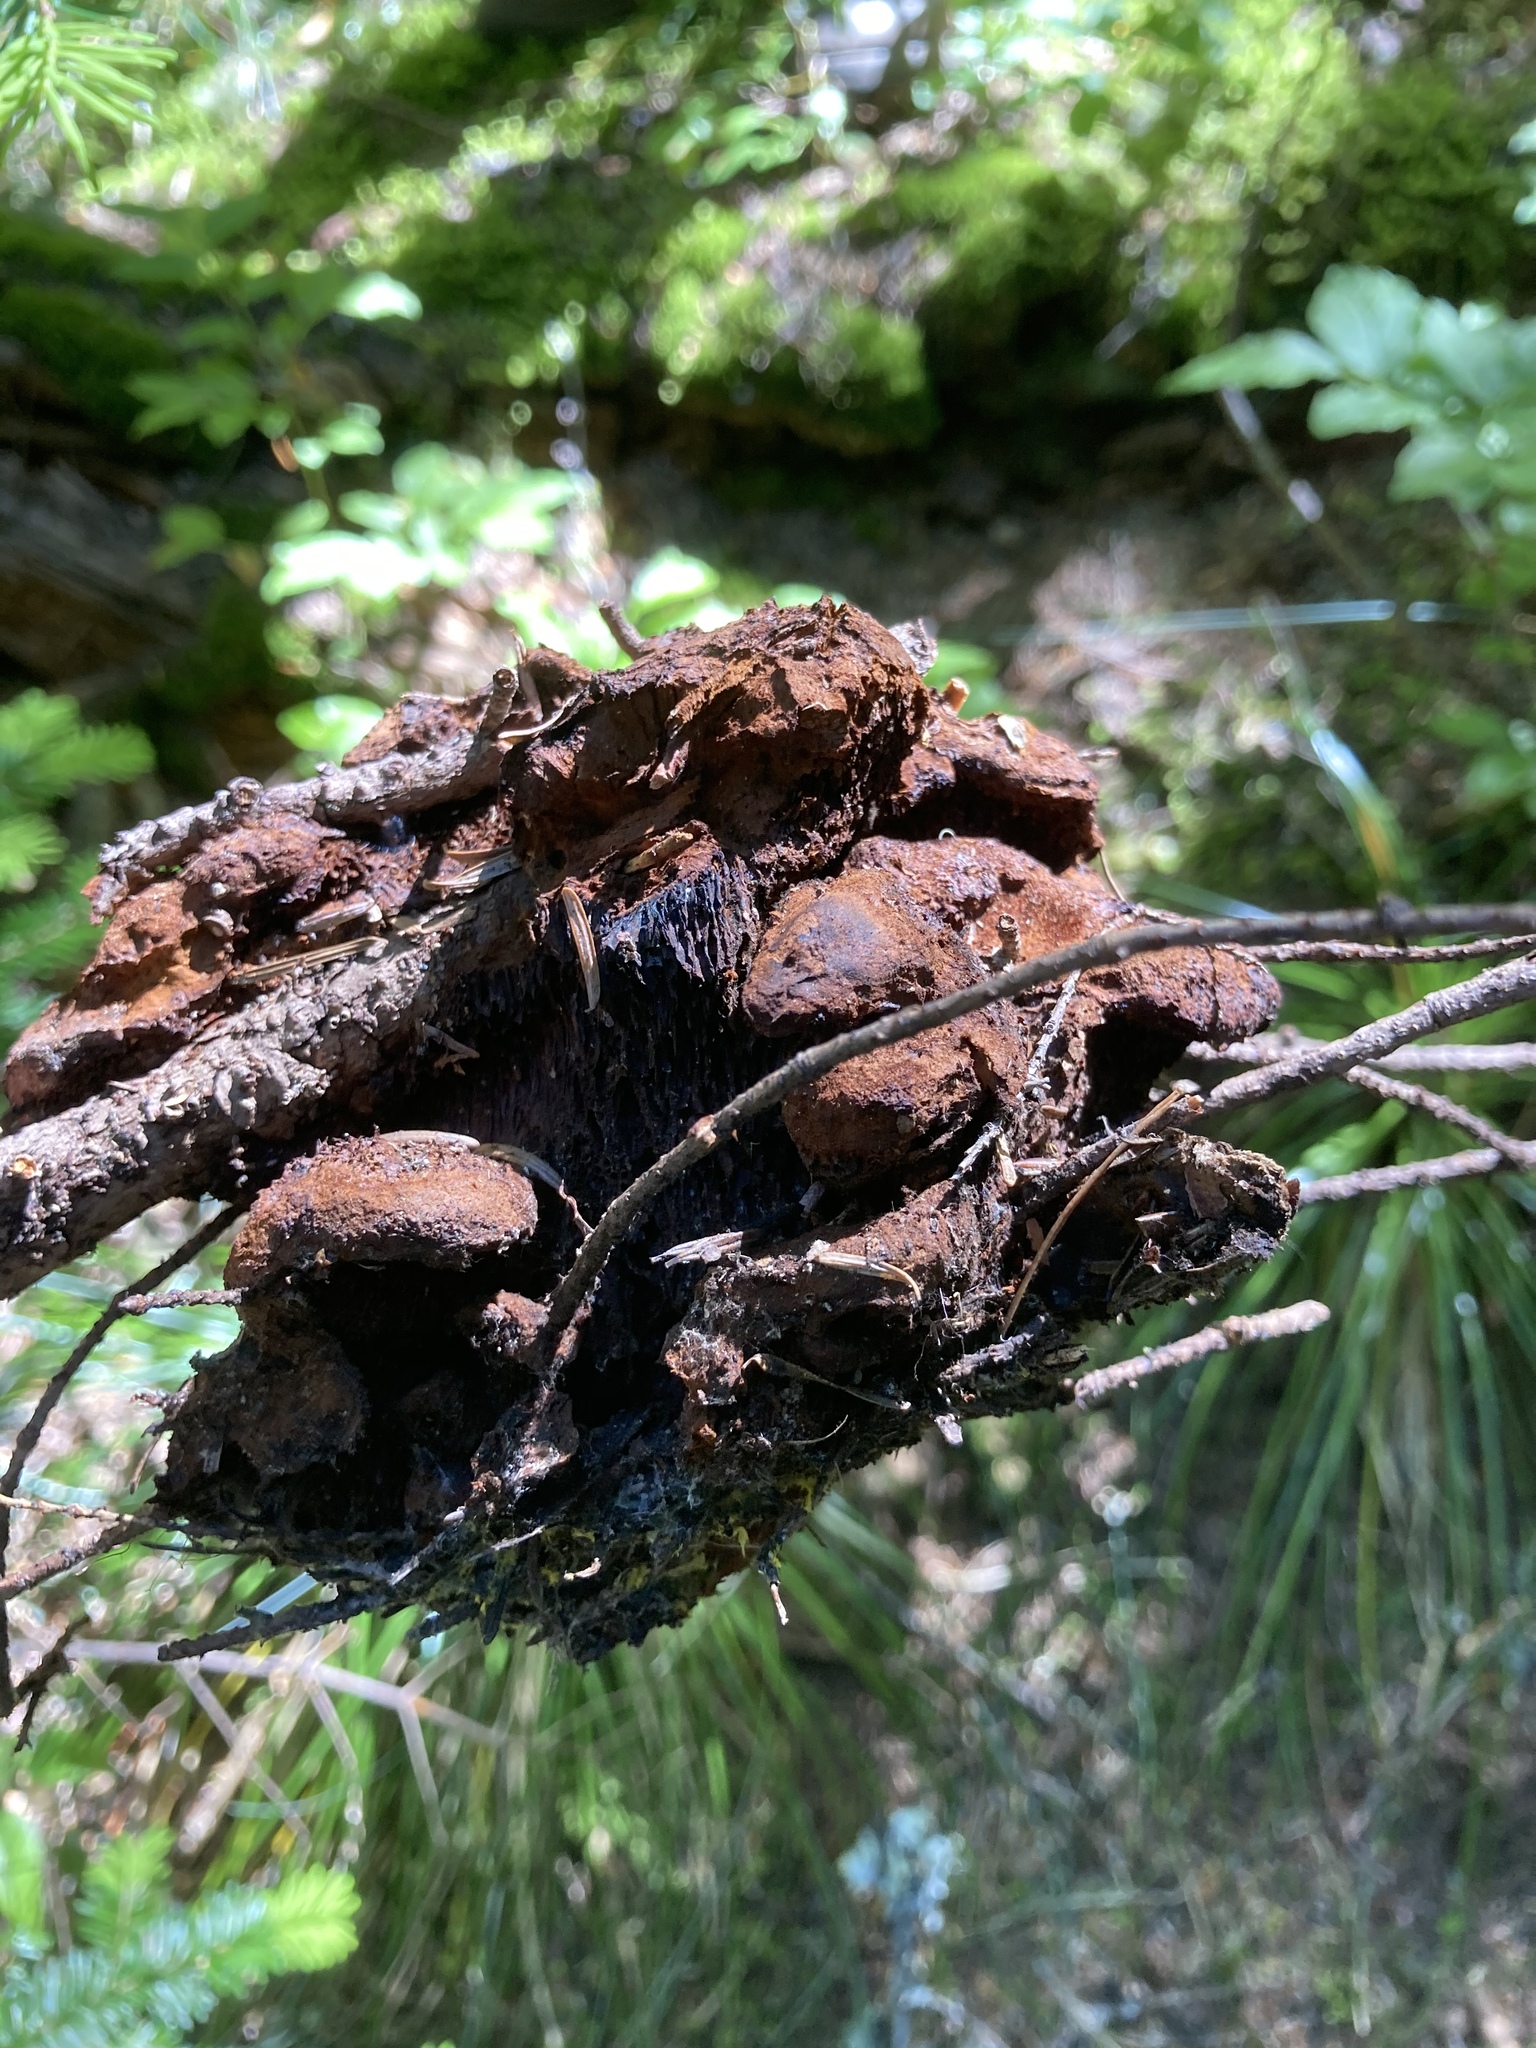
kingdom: Fungi
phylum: Basidiomycota
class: Agaricomycetes
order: Polyporales
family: Laetiporaceae
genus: Phaeolus
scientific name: Phaeolus schweinitzii
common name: Dyer's mazegill
